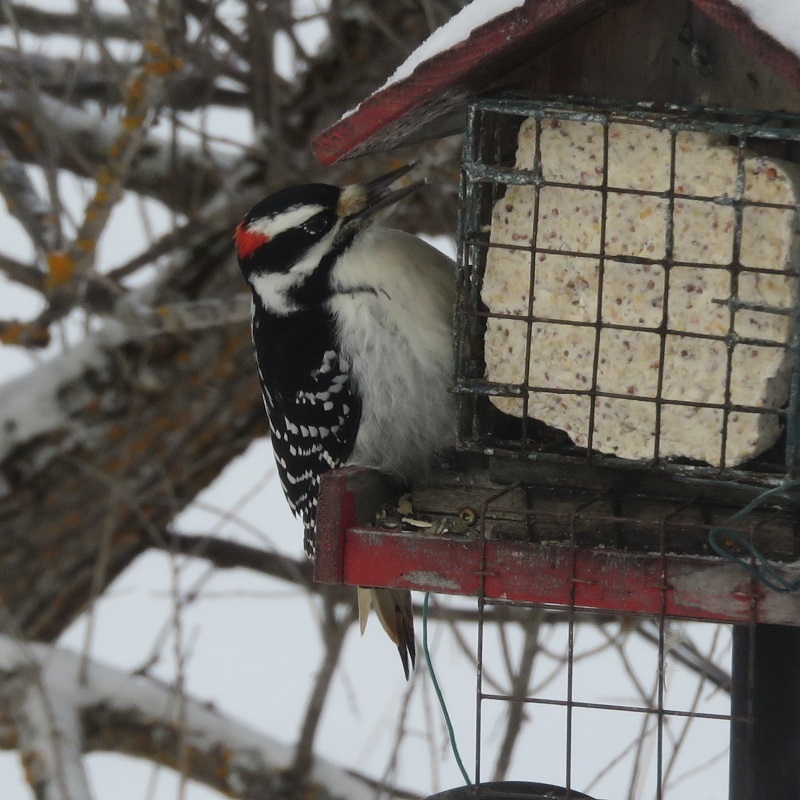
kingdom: Animalia
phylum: Chordata
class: Aves
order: Piciformes
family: Picidae
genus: Leuconotopicus
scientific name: Leuconotopicus villosus
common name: Hairy woodpecker
